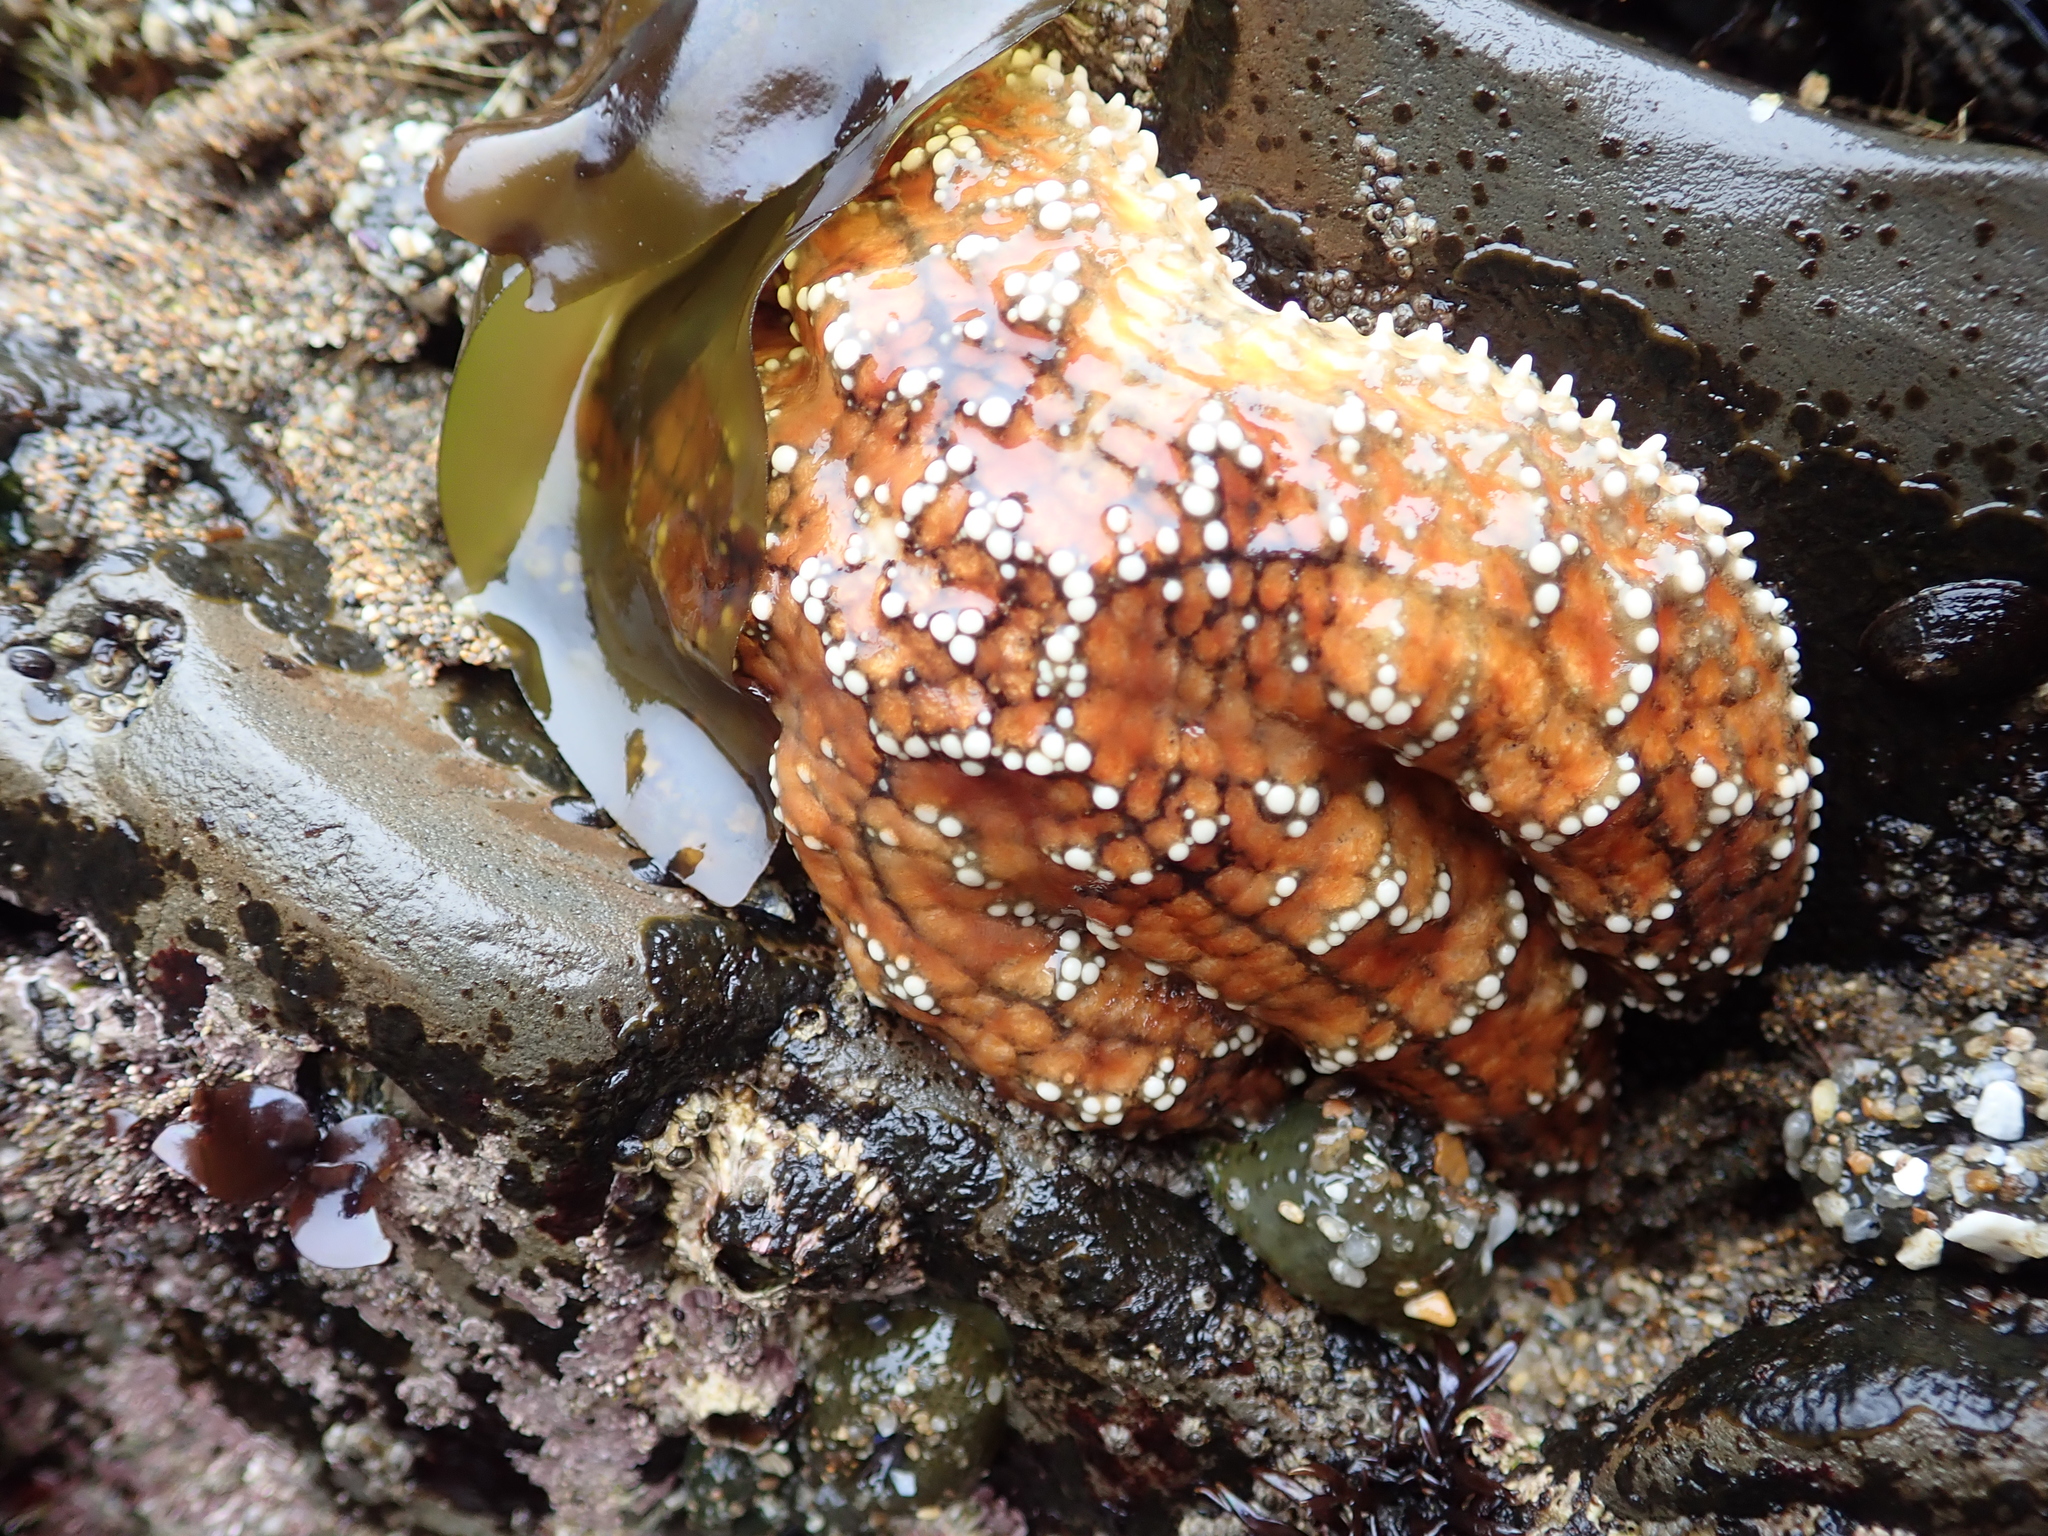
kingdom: Animalia
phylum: Echinodermata
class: Asteroidea
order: Forcipulatida
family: Asteriidae
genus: Pisaster
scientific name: Pisaster ochraceus
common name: Ochre stars
